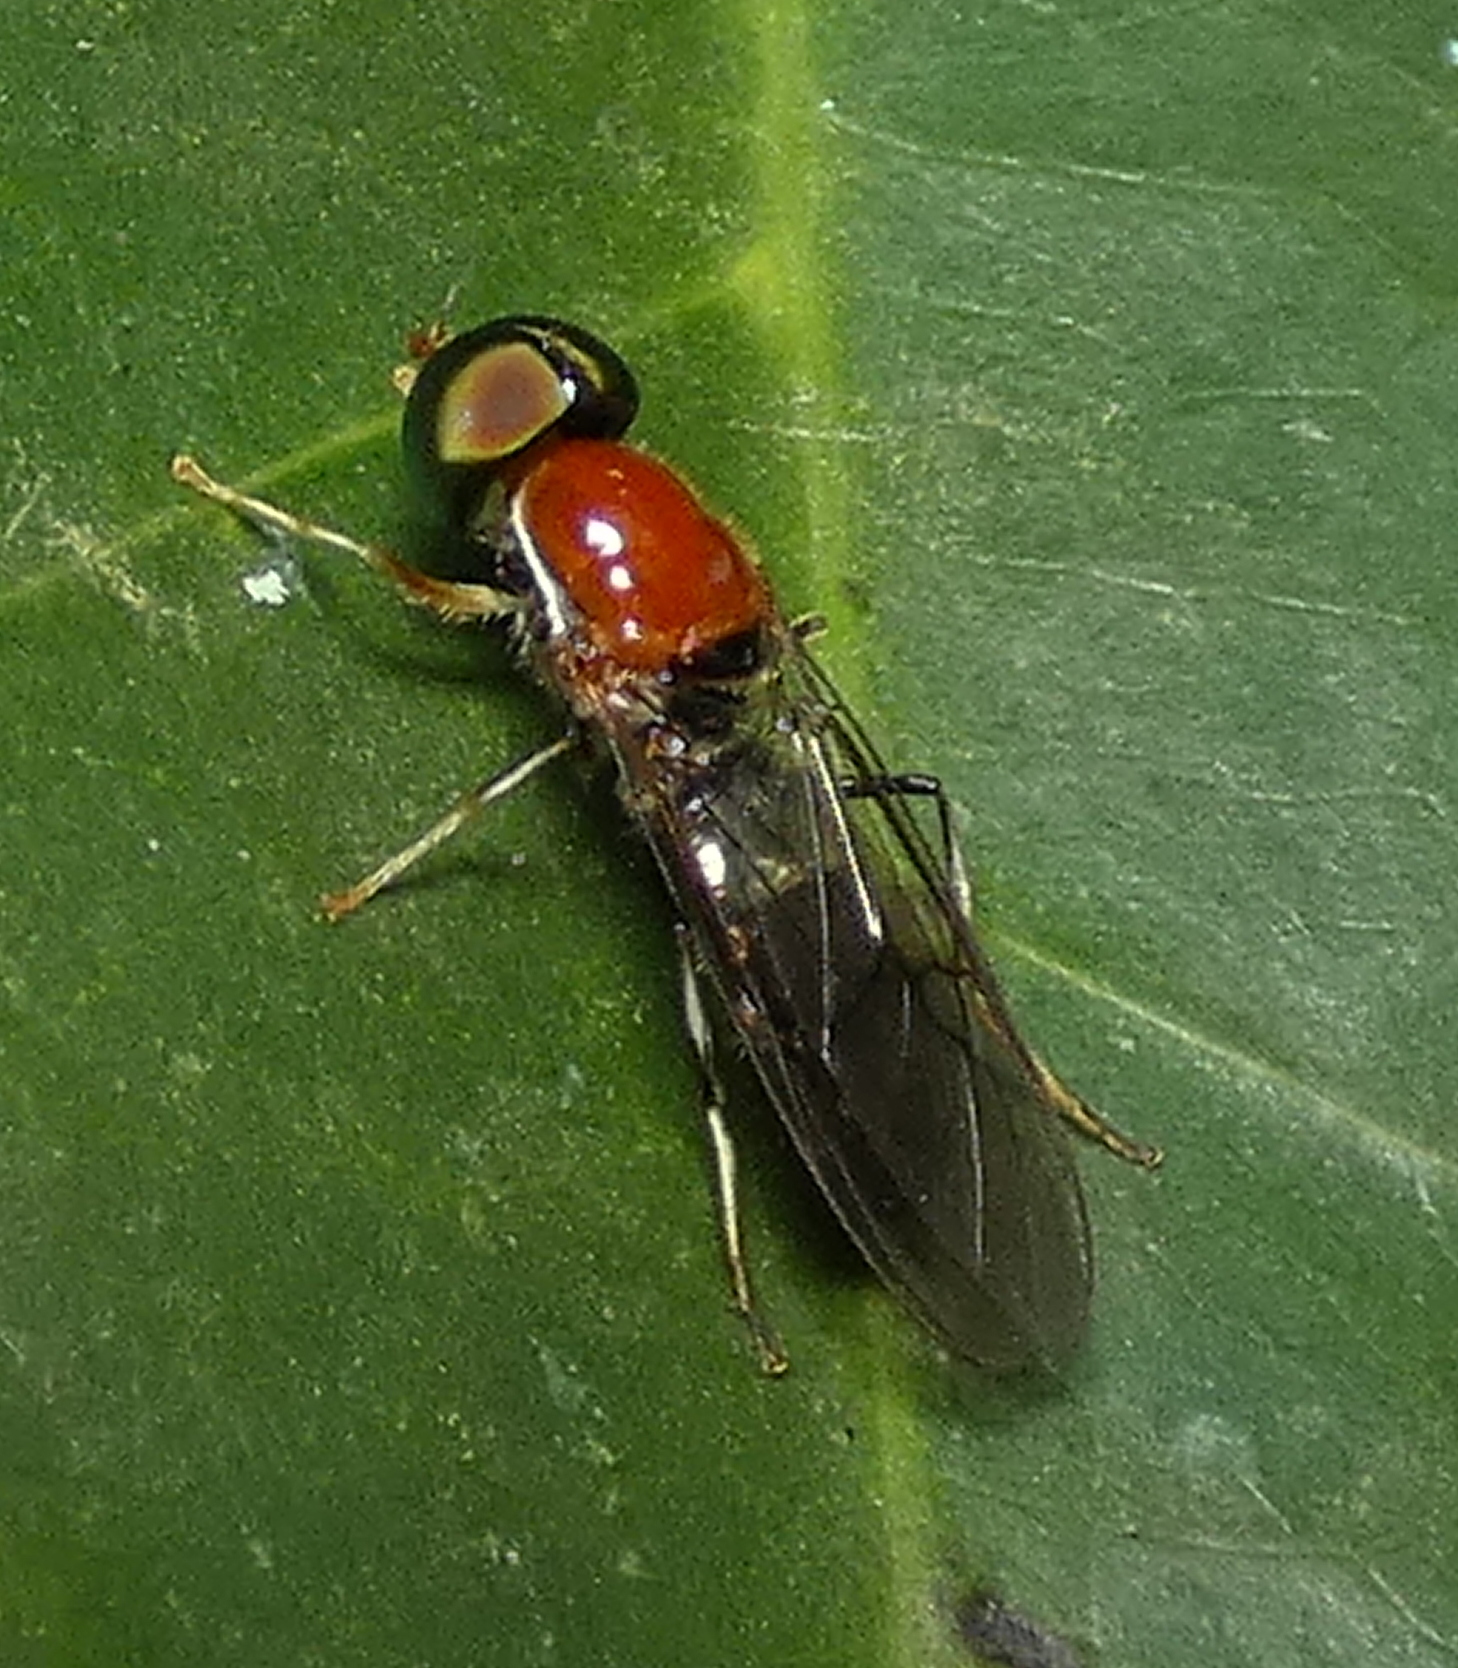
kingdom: Animalia
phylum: Arthropoda
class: Insecta
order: Diptera
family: Stratiomyidae
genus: Sargus
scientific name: Sargus thoracicus
